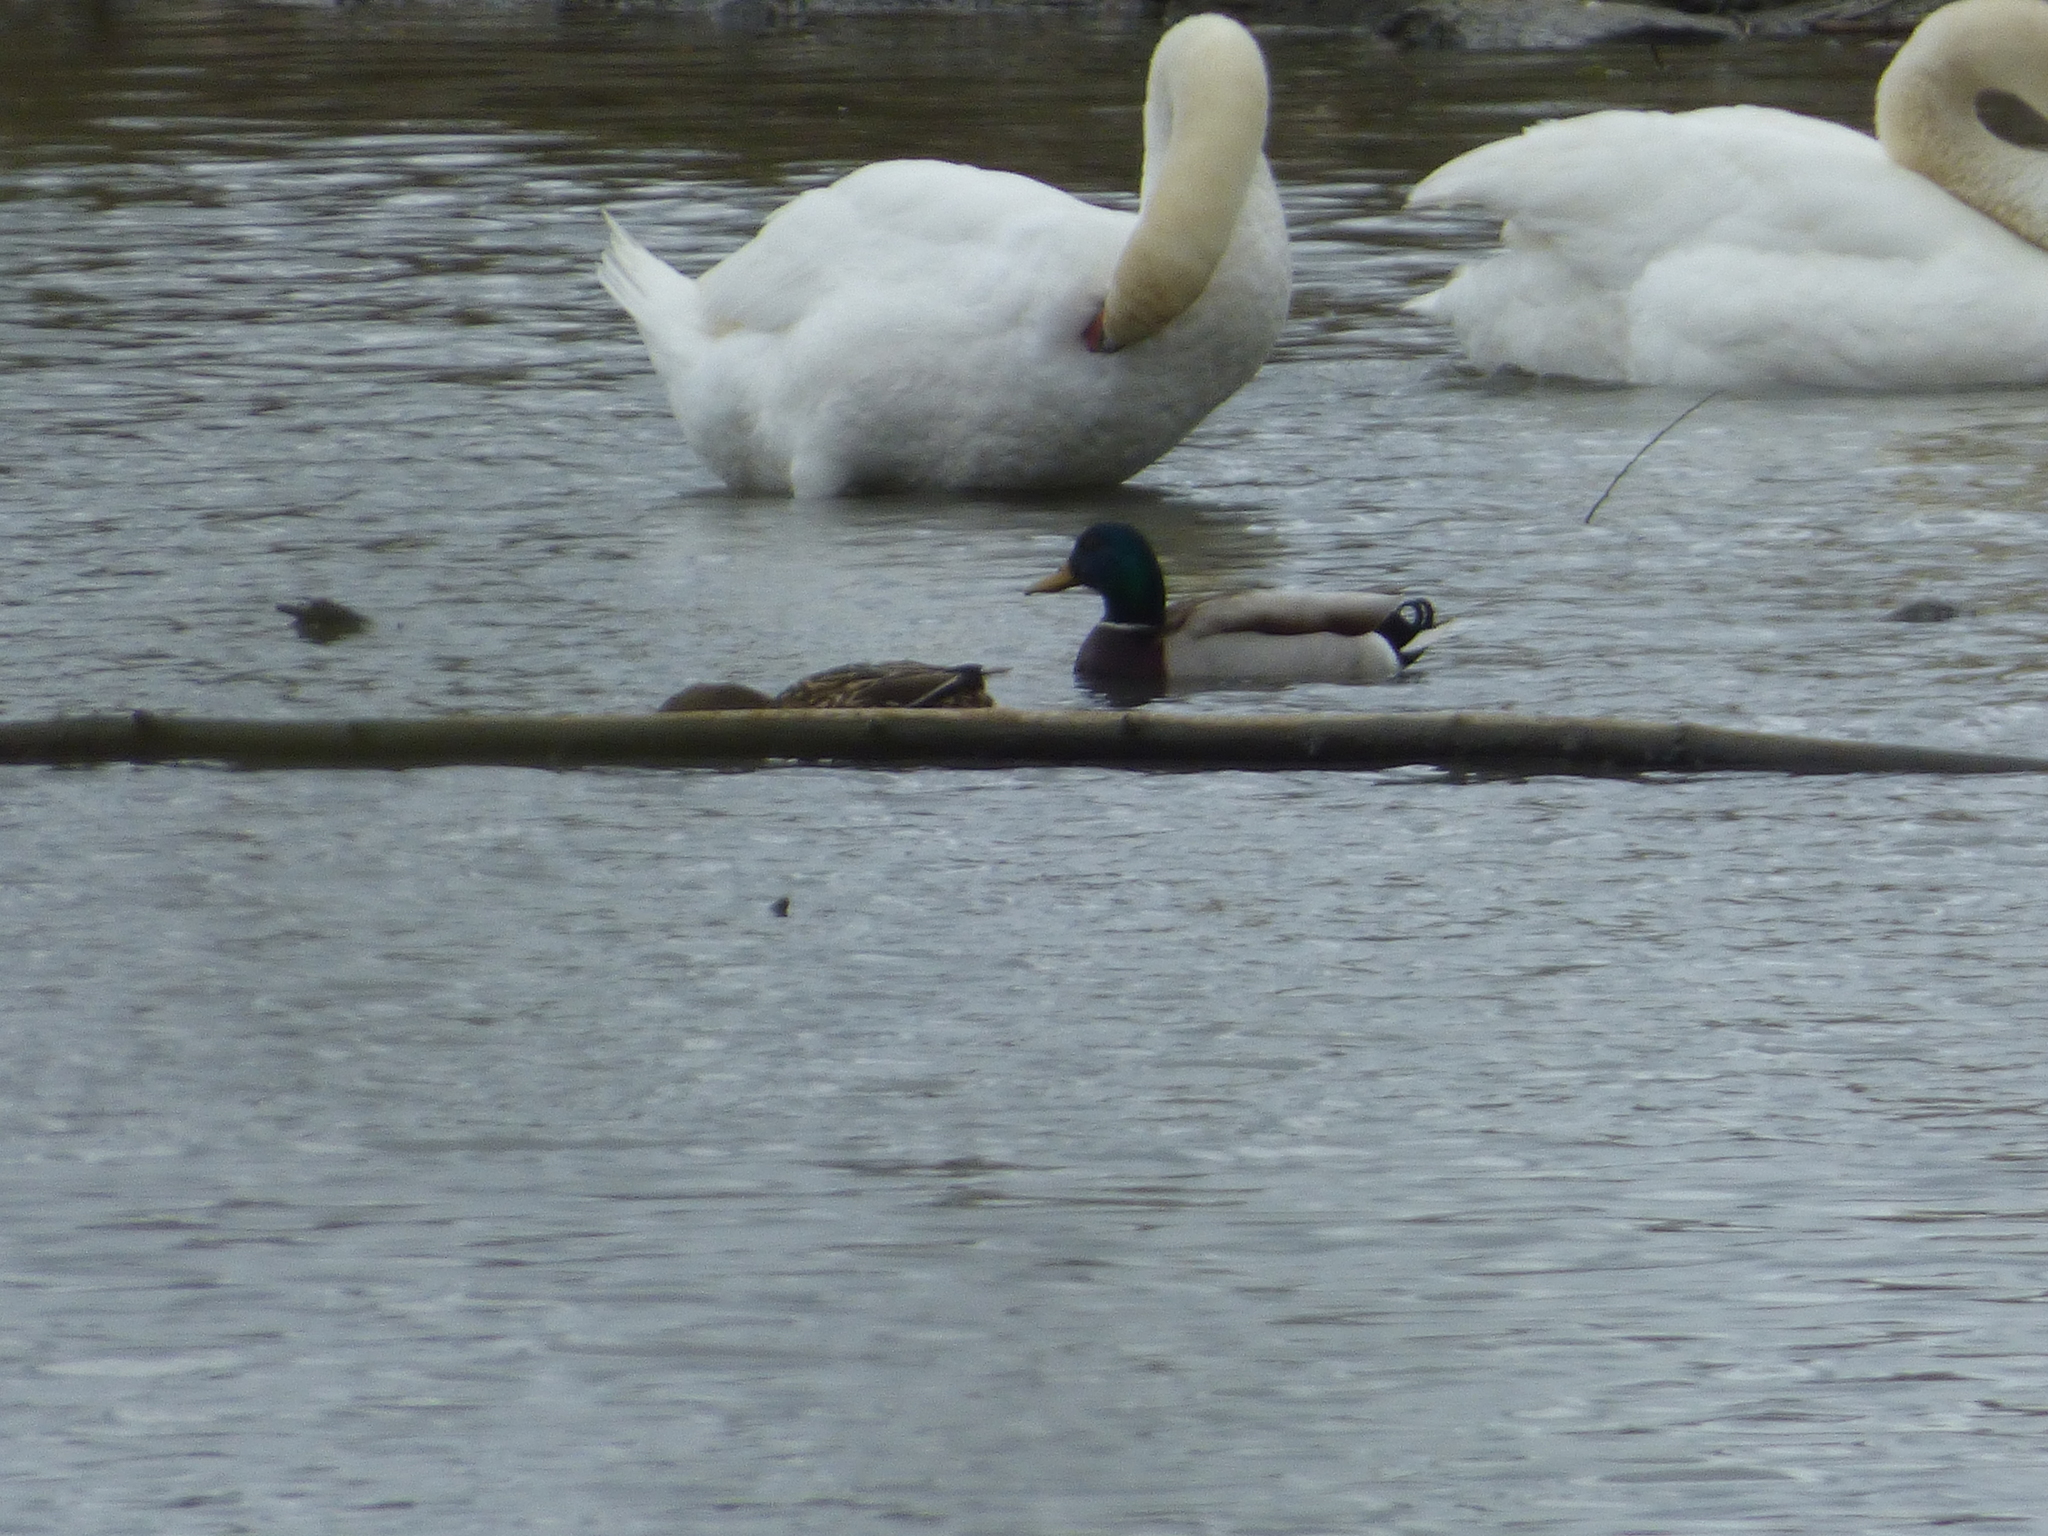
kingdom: Animalia
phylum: Chordata
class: Aves
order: Anseriformes
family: Anatidae
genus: Anas
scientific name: Anas platyrhynchos
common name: Mallard
